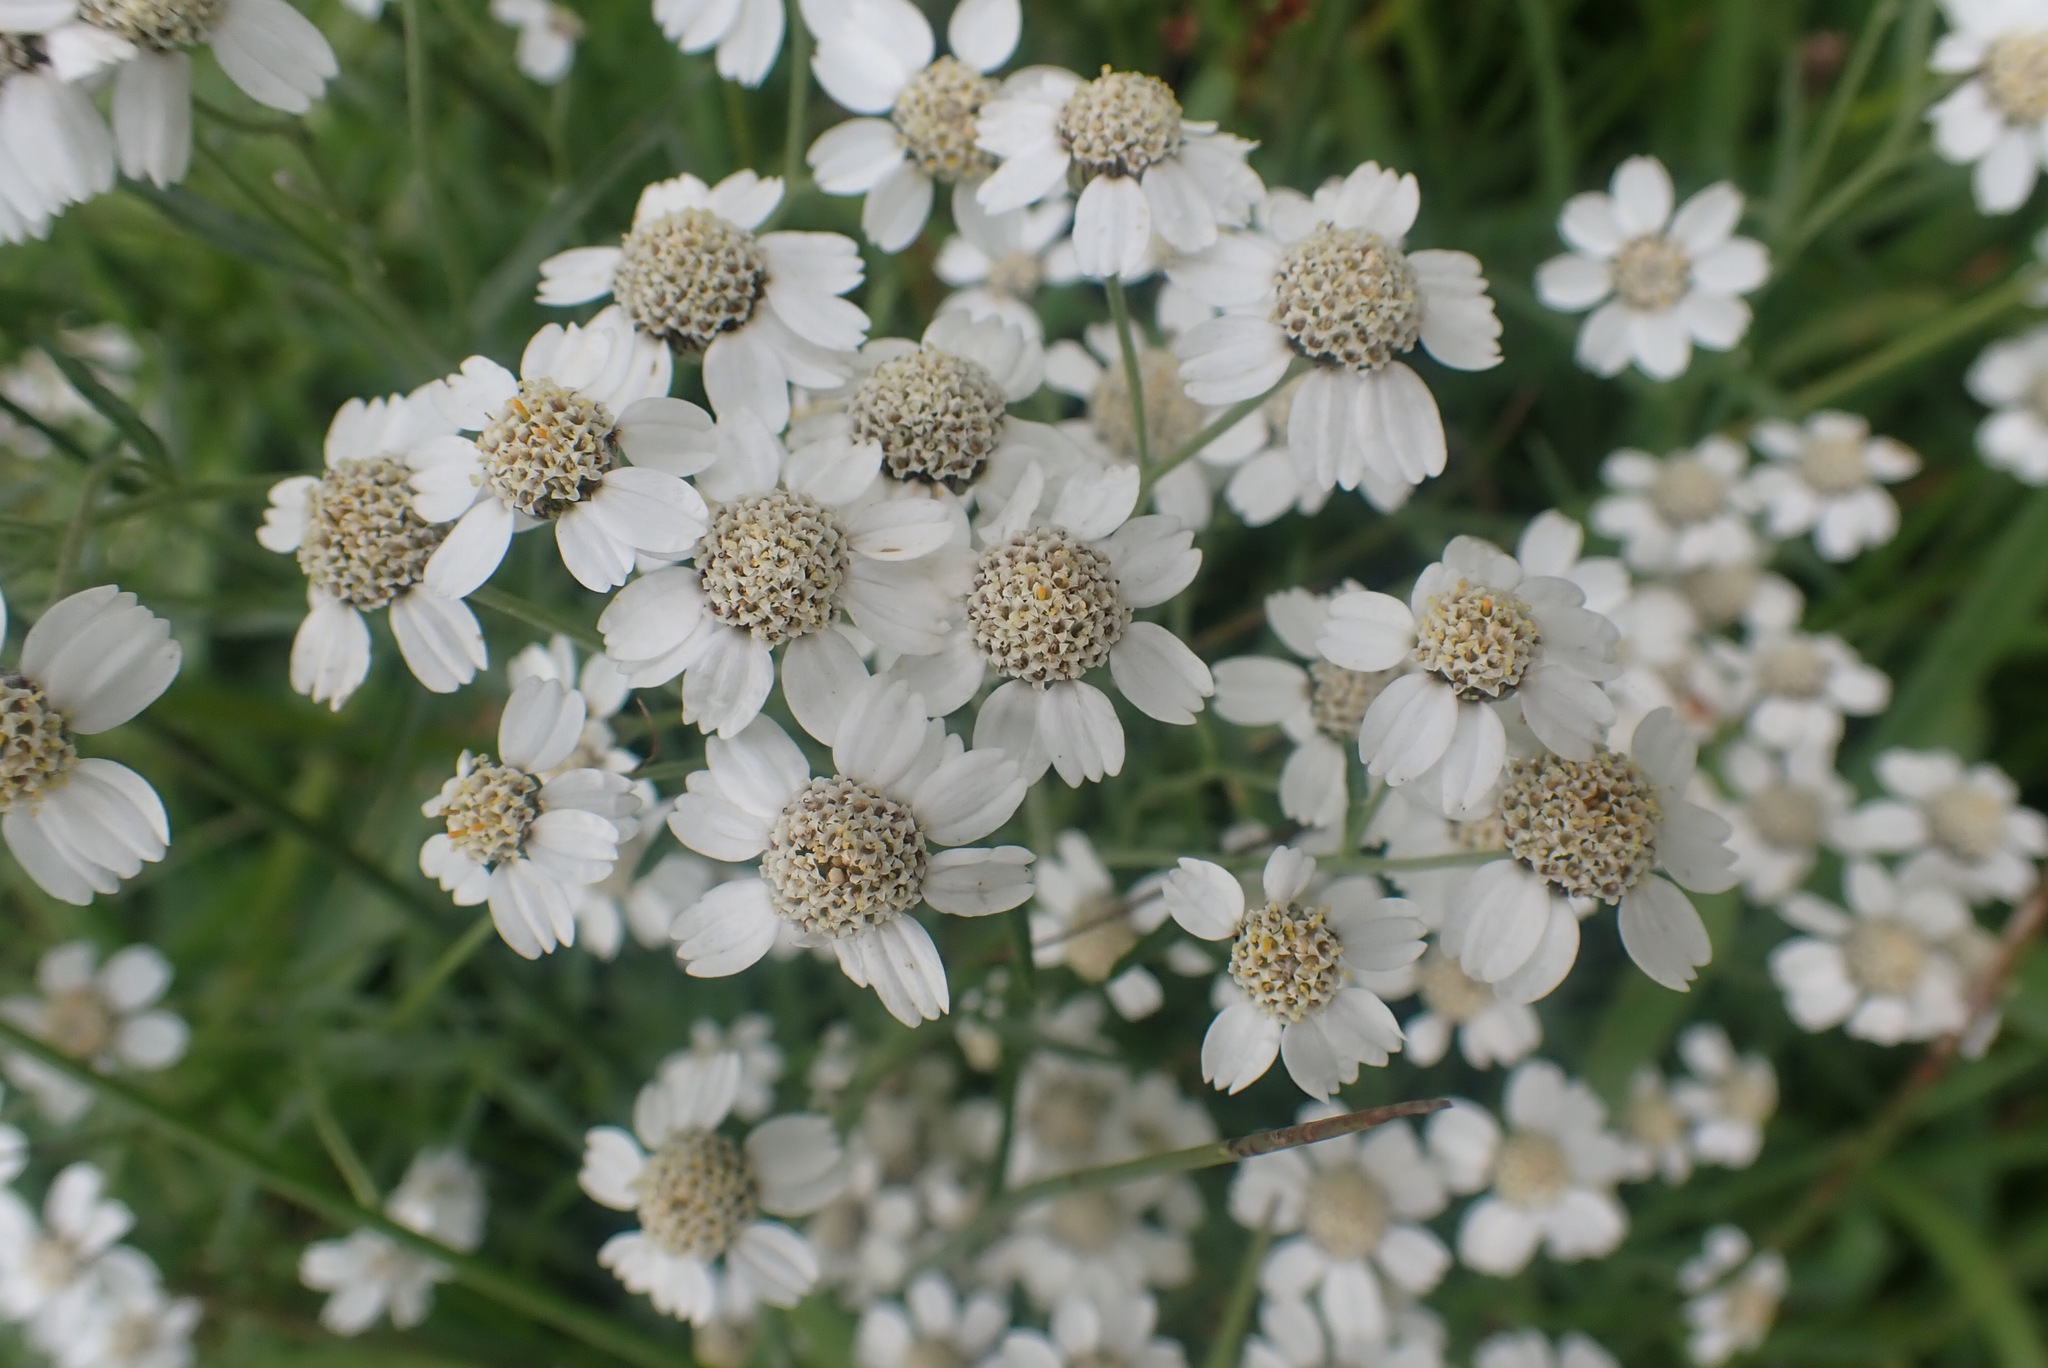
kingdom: Plantae
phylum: Tracheophyta
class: Magnoliopsida
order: Asterales
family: Asteraceae
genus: Achillea
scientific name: Achillea ptarmica
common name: Sneezeweed
